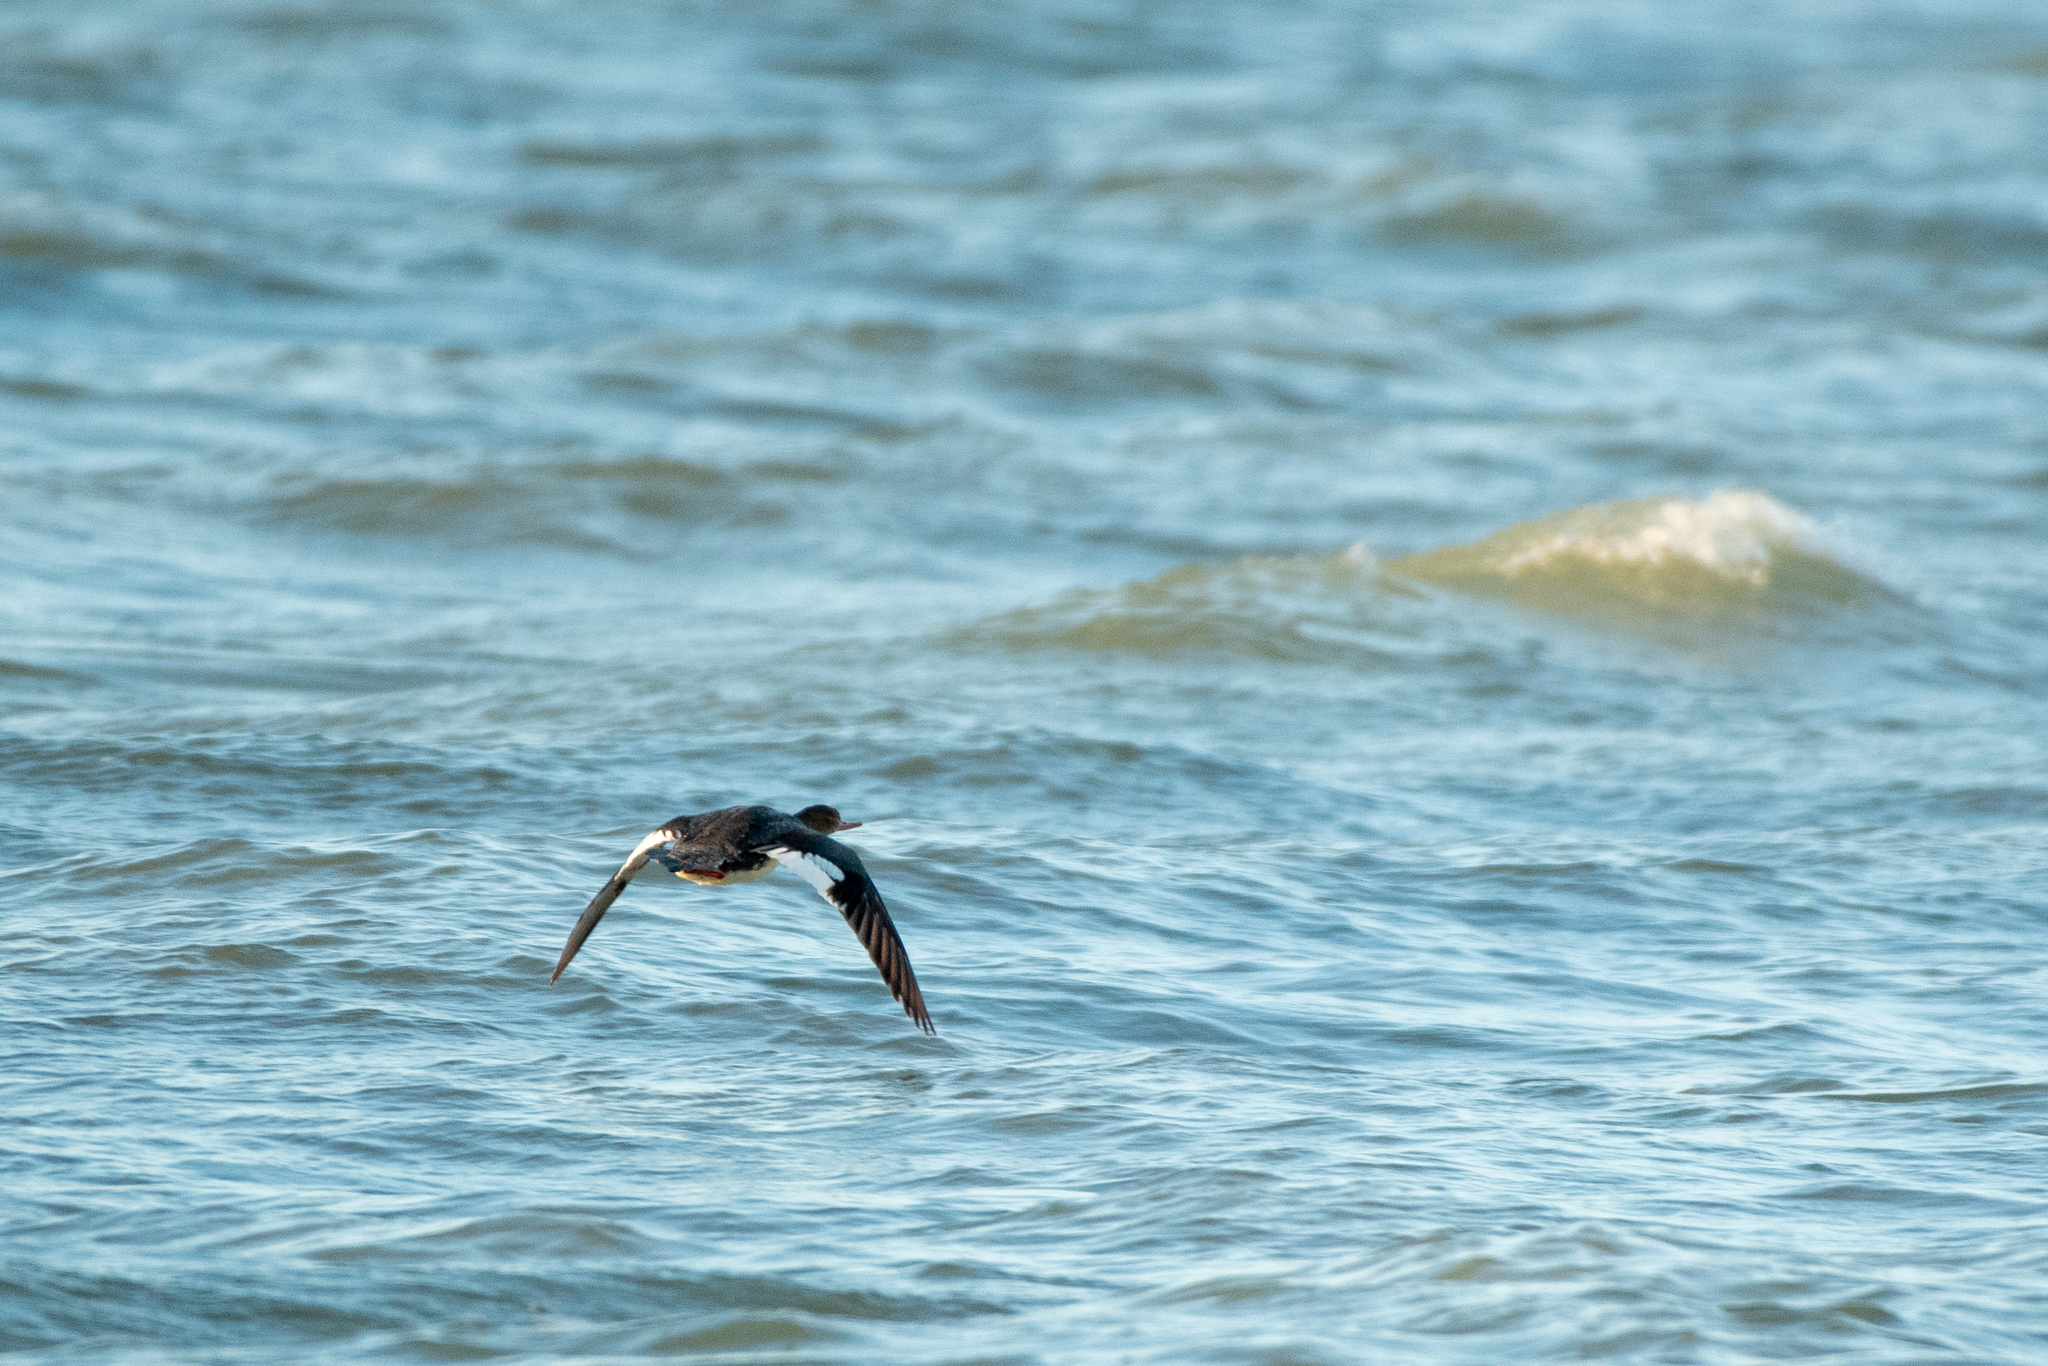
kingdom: Animalia
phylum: Chordata
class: Aves
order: Anseriformes
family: Anatidae
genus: Mergus
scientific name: Mergus serrator
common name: Red-breasted merganser
